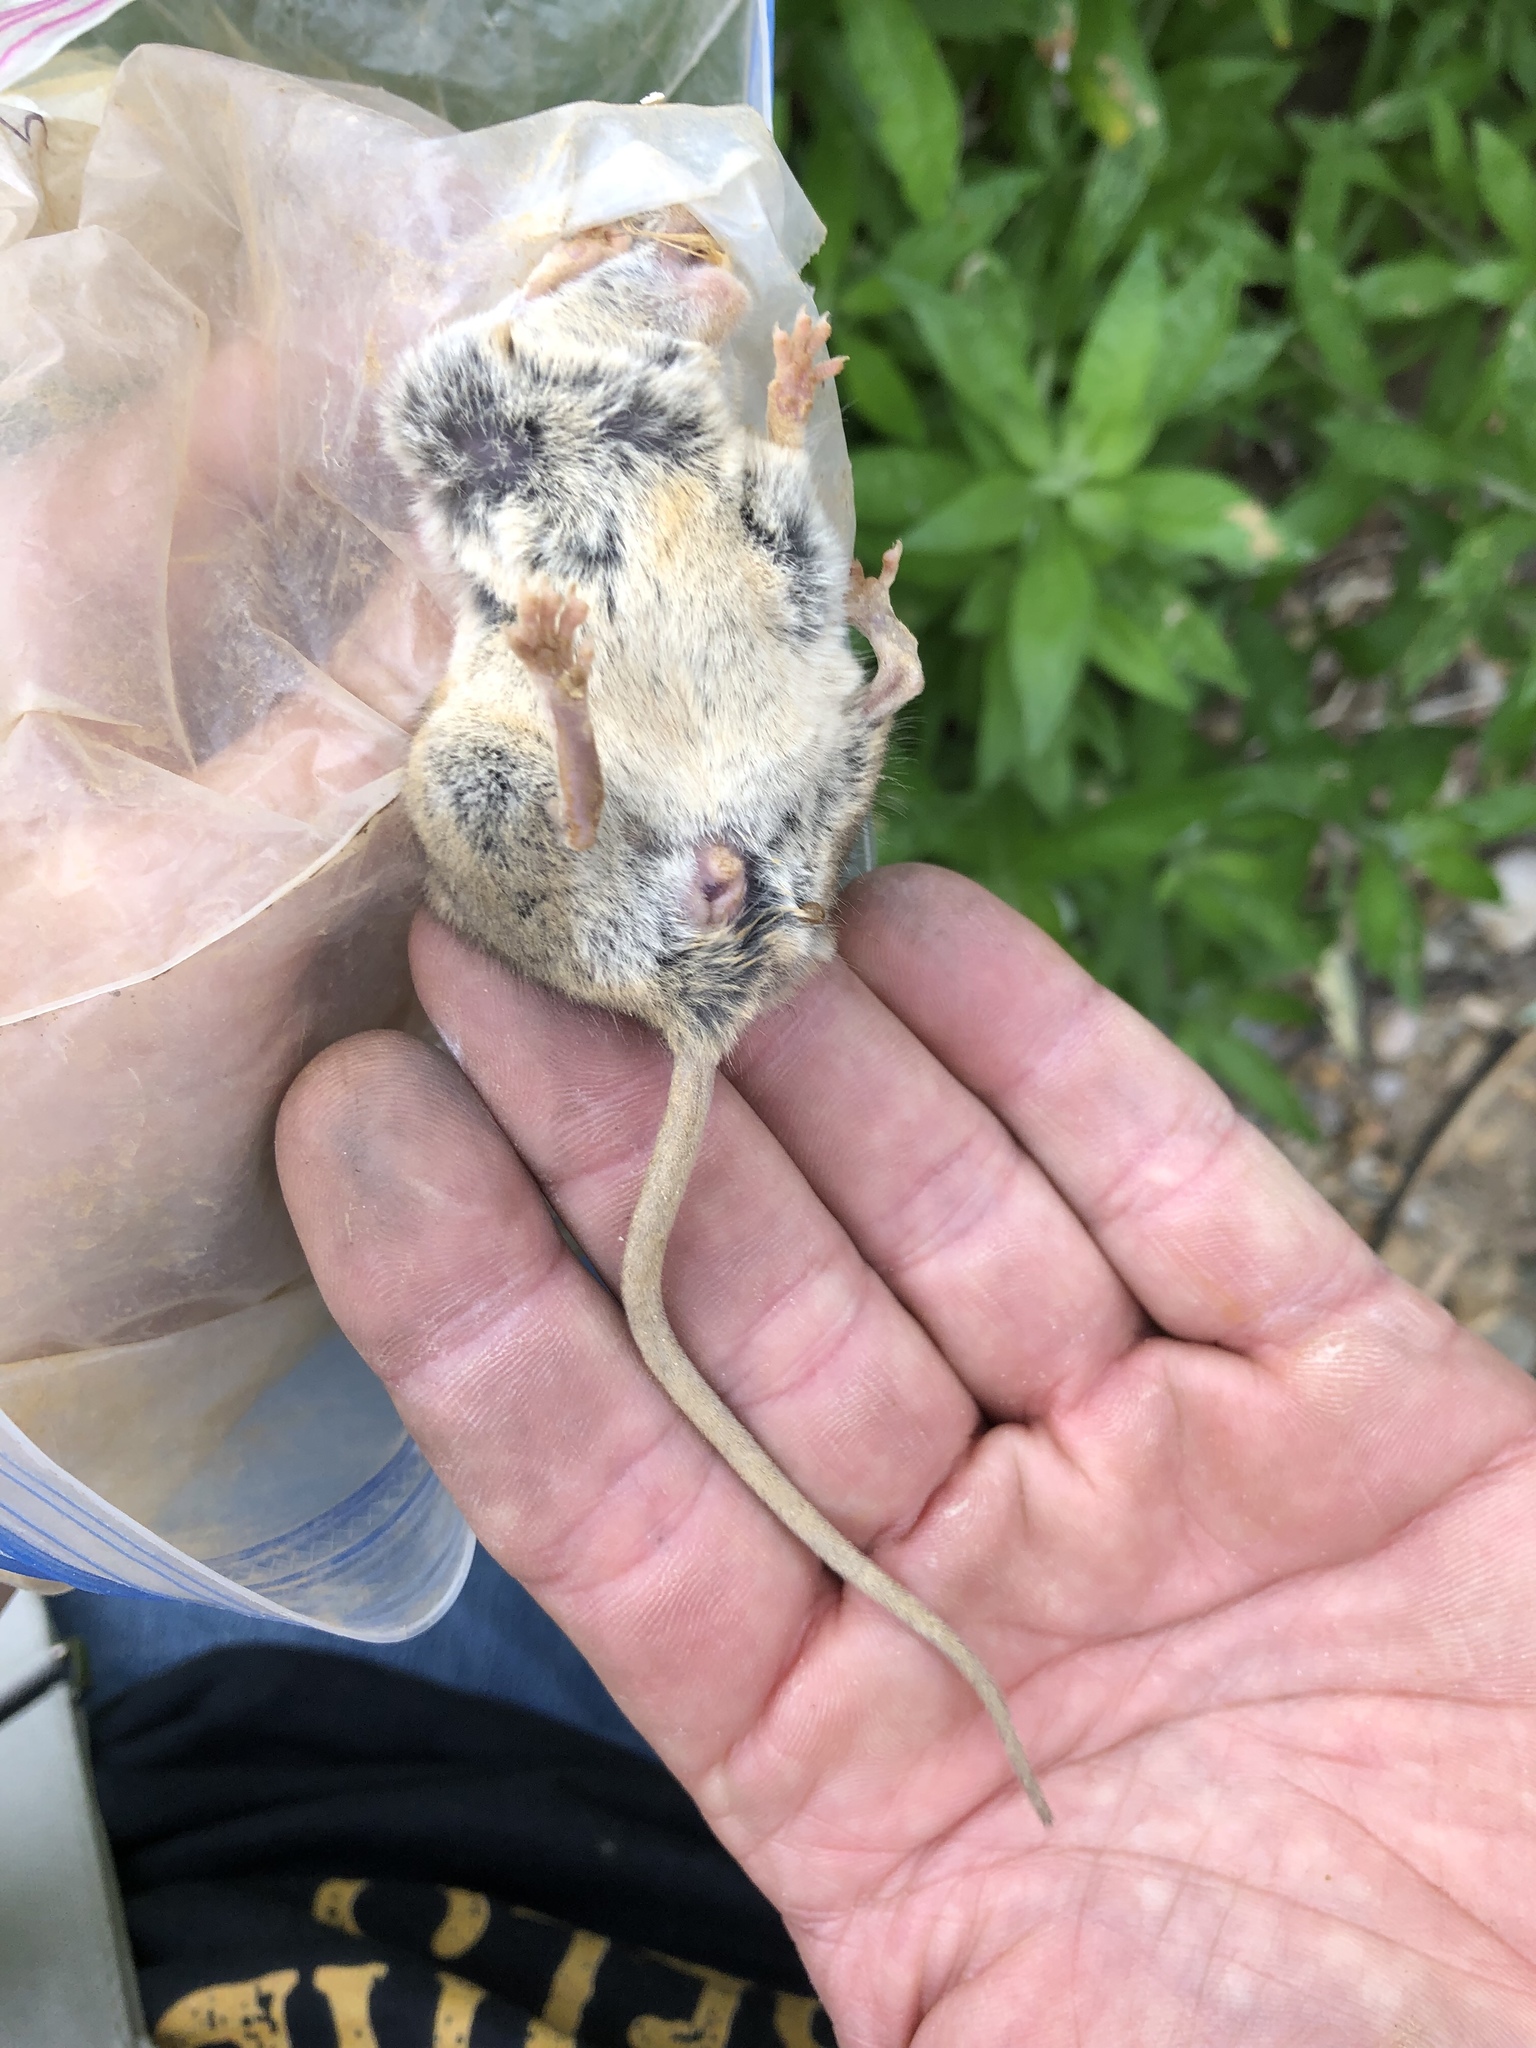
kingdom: Animalia
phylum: Chordata
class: Mammalia
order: Rodentia
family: Cricetidae
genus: Peromyscus
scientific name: Peromyscus eremicus
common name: Cactus deermouse
